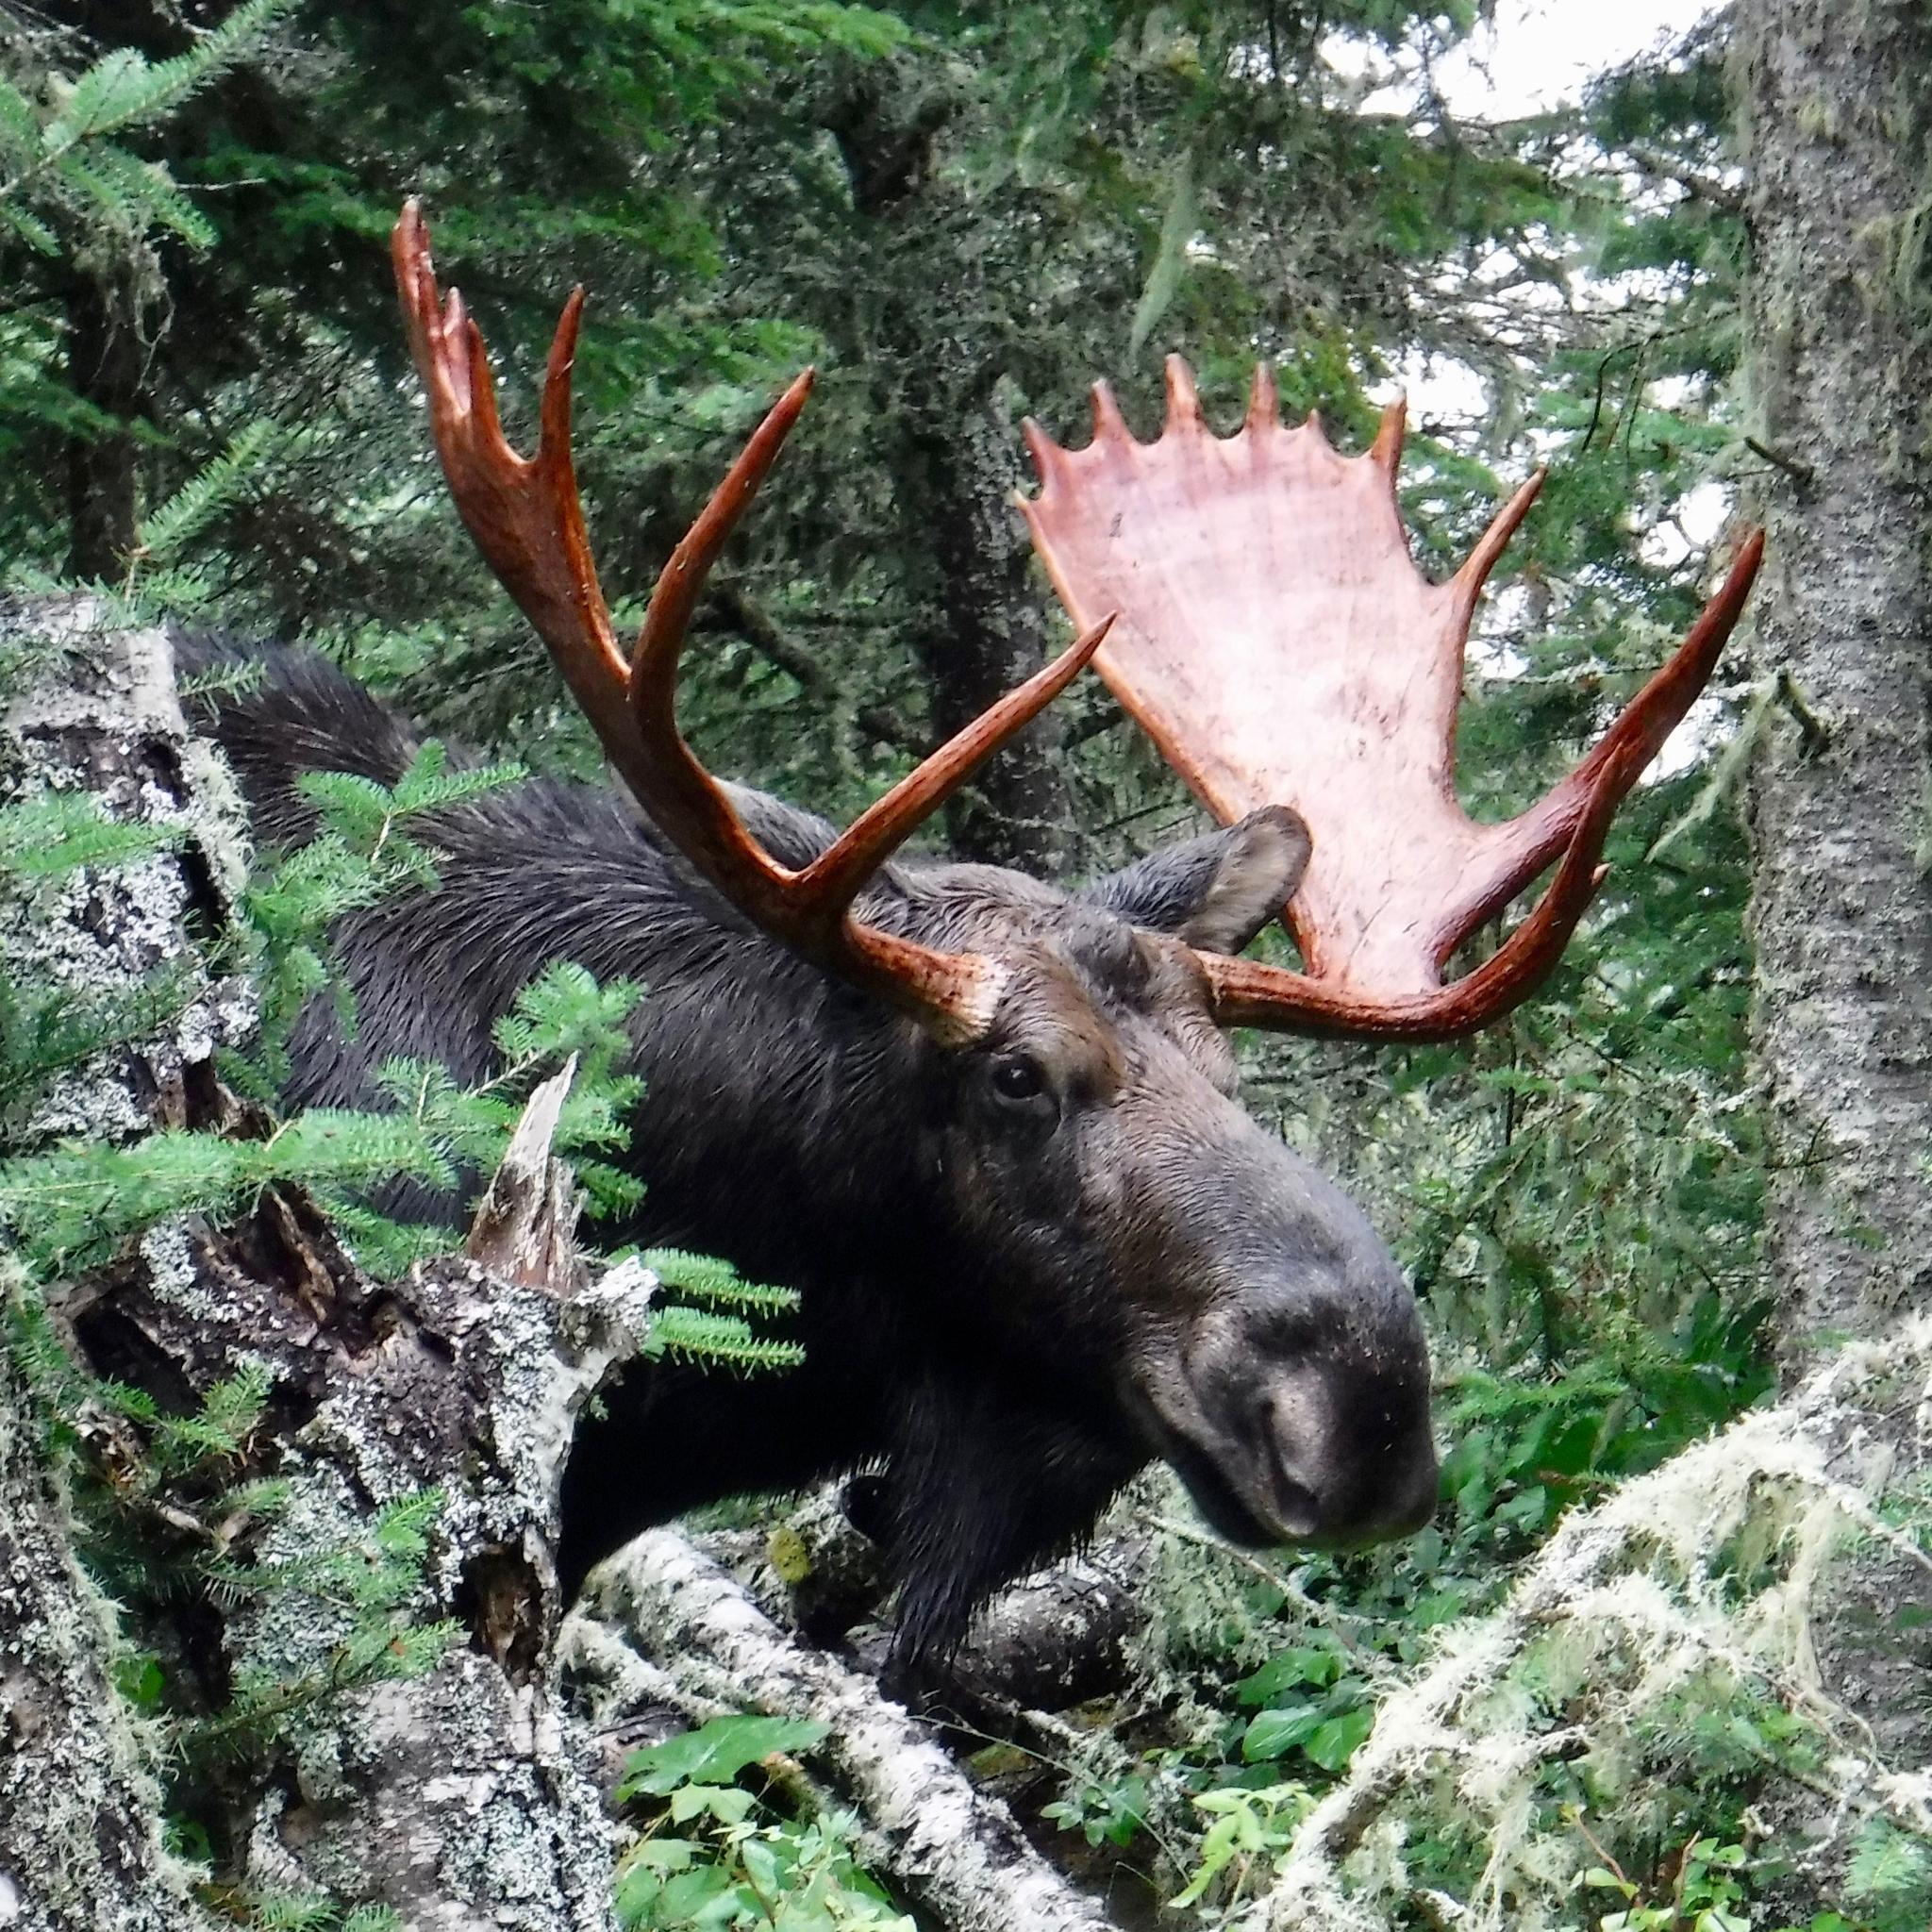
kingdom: Animalia
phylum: Chordata
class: Mammalia
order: Artiodactyla
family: Cervidae
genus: Alces
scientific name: Alces alces
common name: Moose
